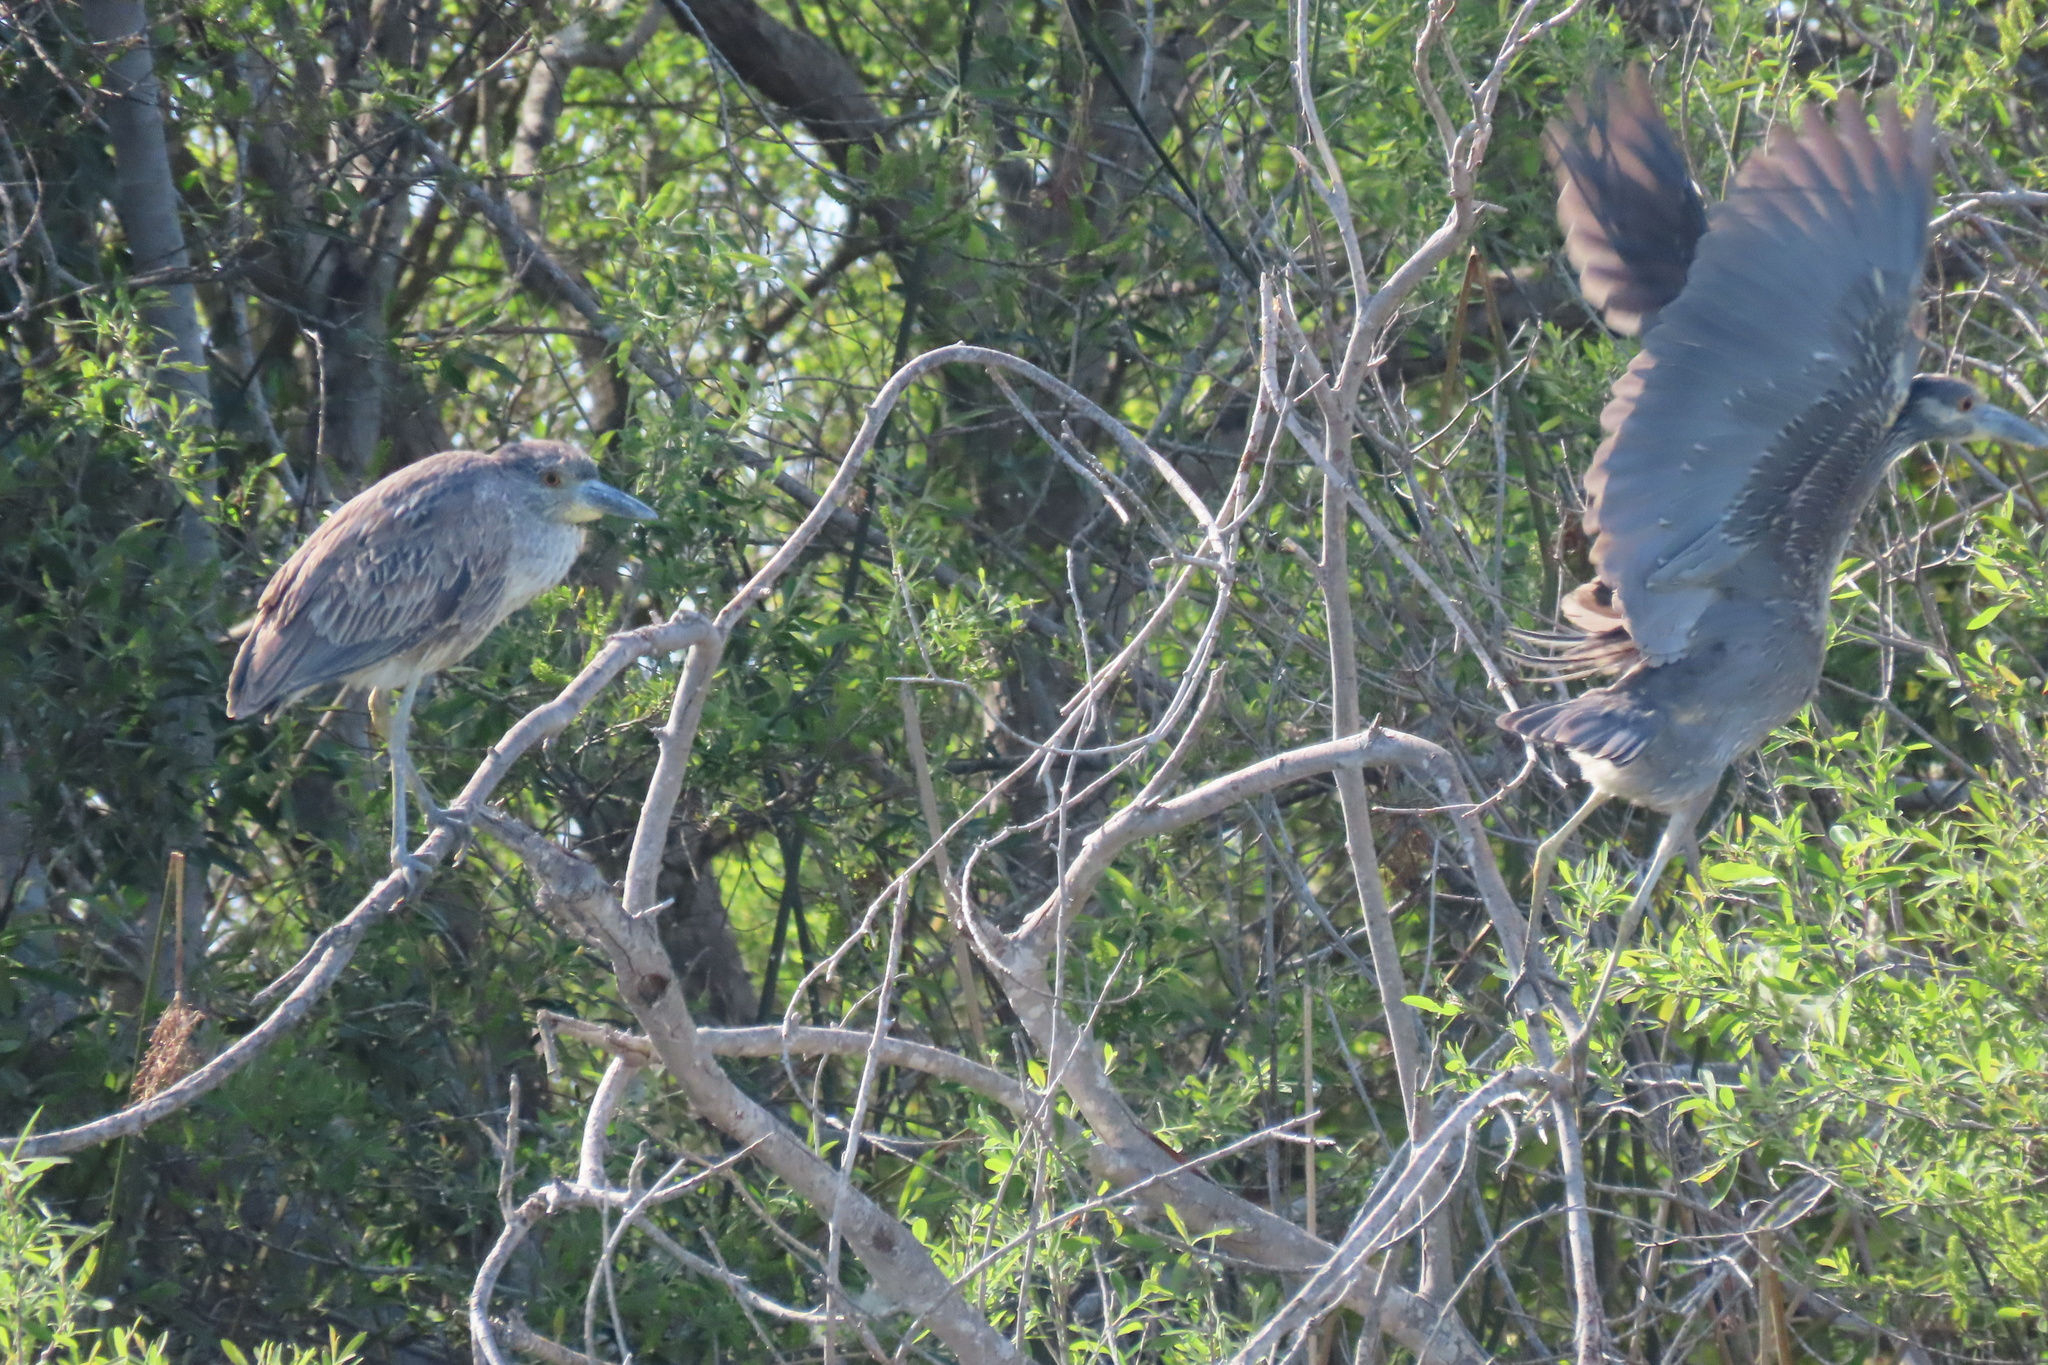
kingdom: Animalia
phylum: Chordata
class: Aves
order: Pelecaniformes
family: Ardeidae
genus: Nyctanassa
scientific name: Nyctanassa violacea
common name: Yellow-crowned night heron
